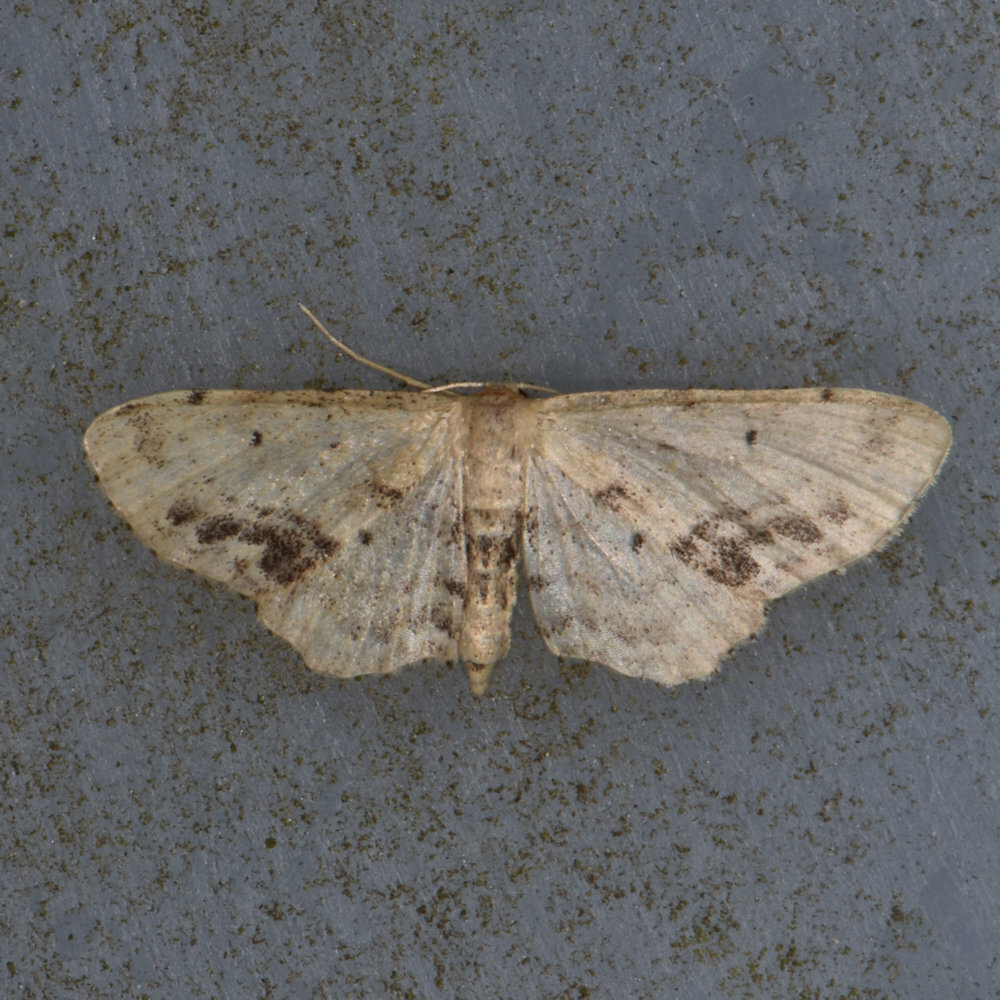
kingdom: Animalia
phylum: Arthropoda
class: Insecta
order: Lepidoptera
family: Geometridae
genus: Idaea
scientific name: Idaea dimidiata
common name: Single-dotted wave
